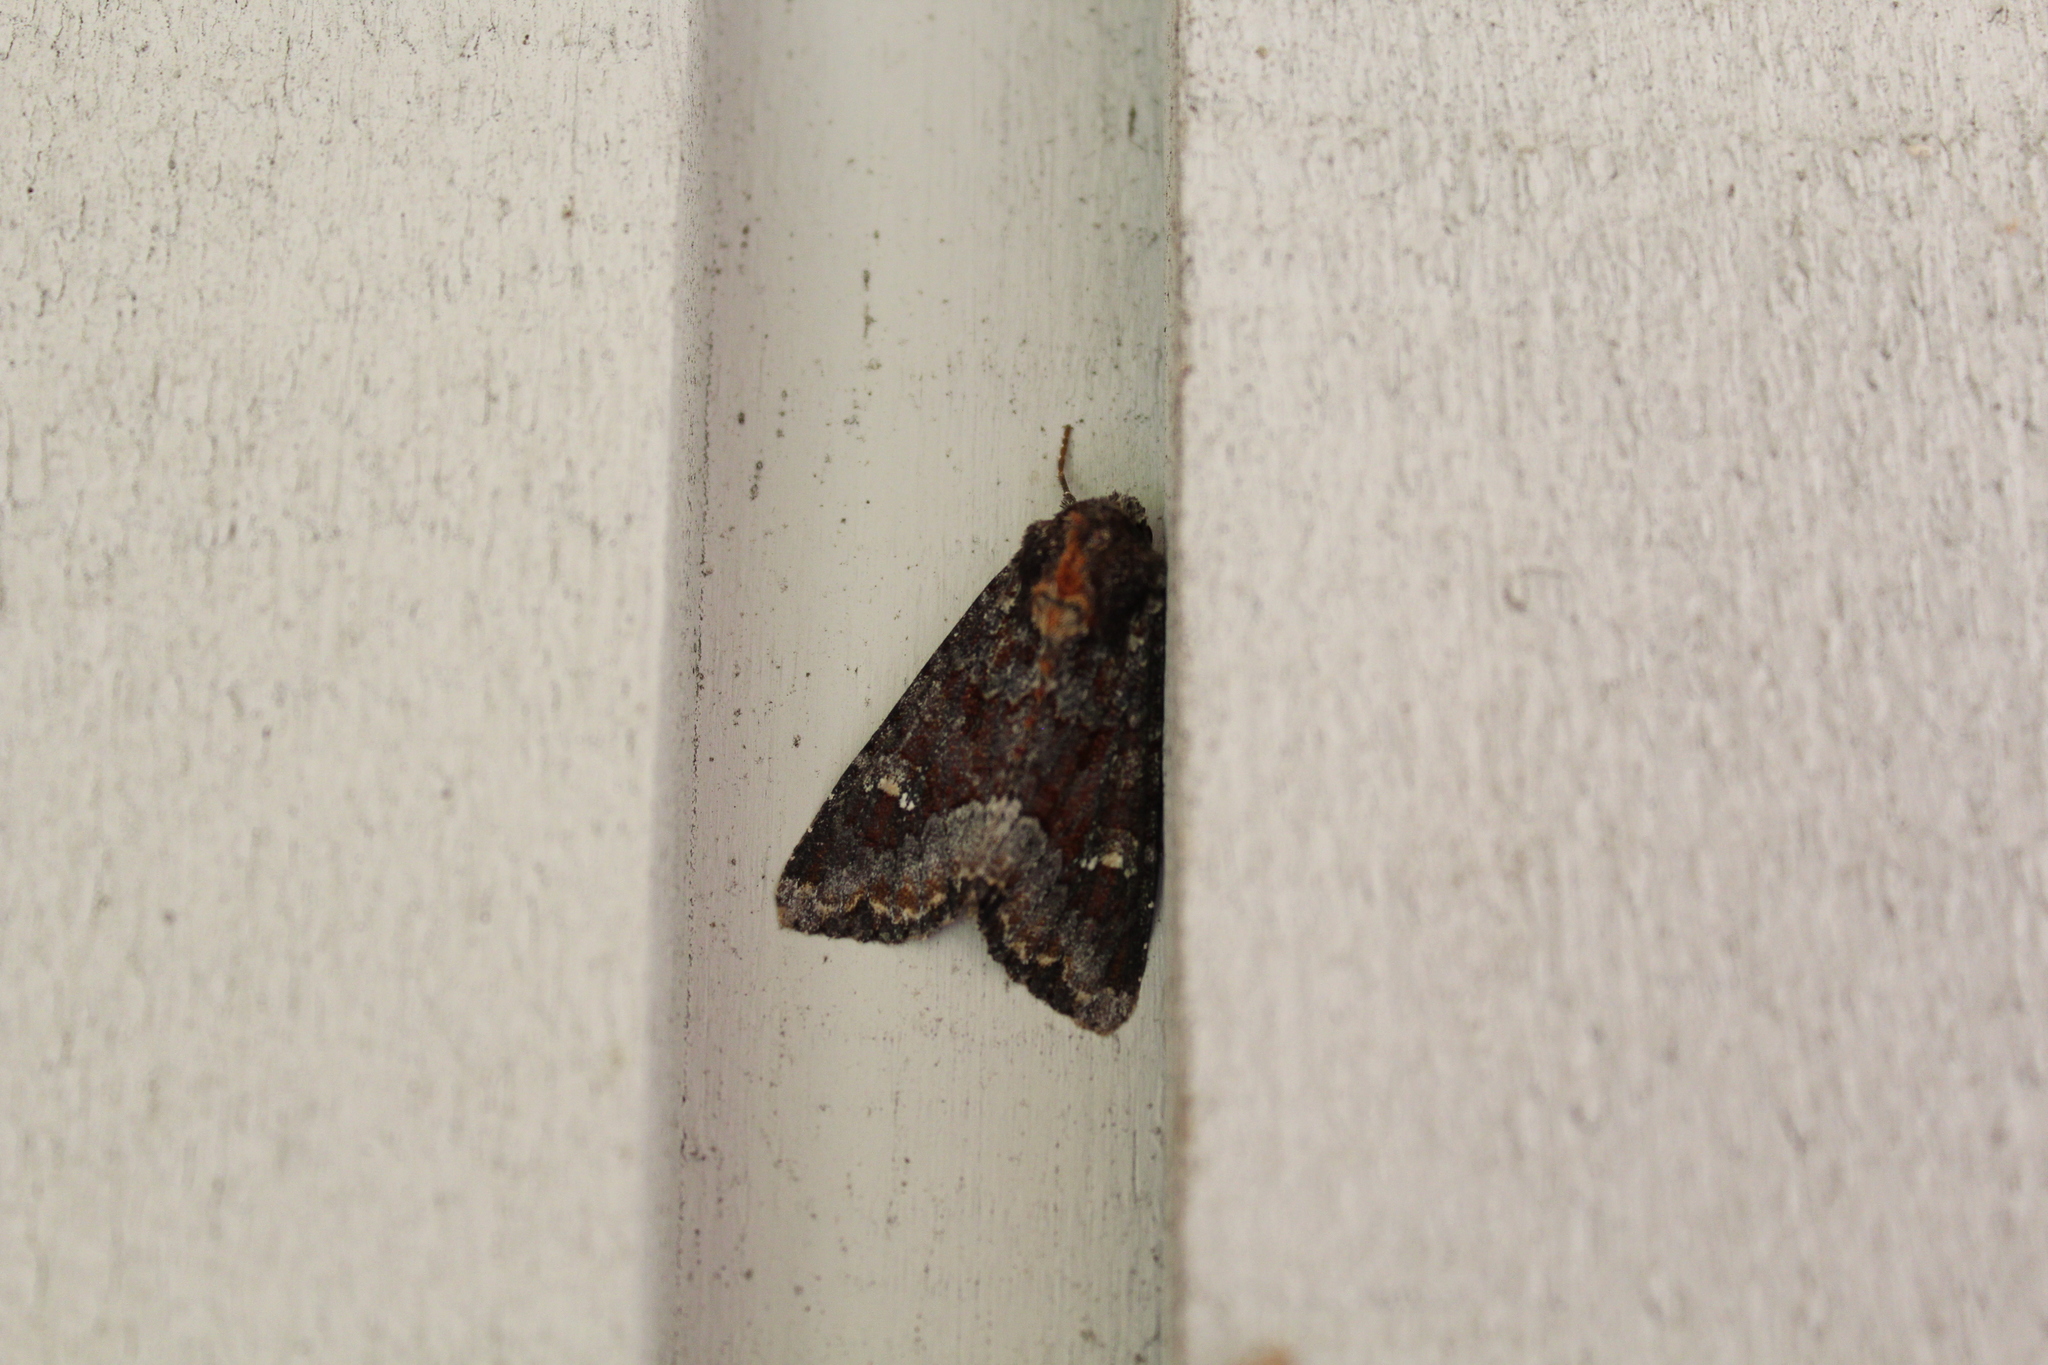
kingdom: Animalia
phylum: Arthropoda
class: Insecta
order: Lepidoptera
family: Noctuidae
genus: Apamea
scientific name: Apamea amputatrix
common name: Yellow-headed cutworm moth
